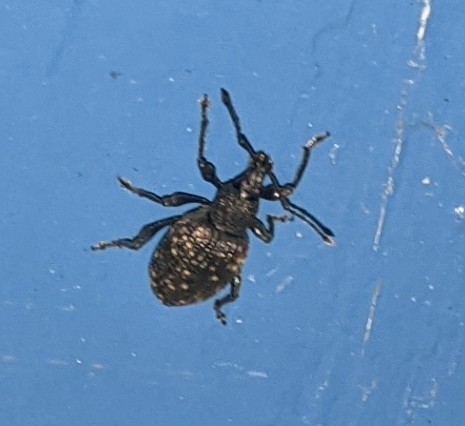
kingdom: Animalia
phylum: Arthropoda
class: Insecta
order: Coleoptera
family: Curculionidae
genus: Otiorhynchus
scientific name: Otiorhynchus sulcatus
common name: Black vine weevil
